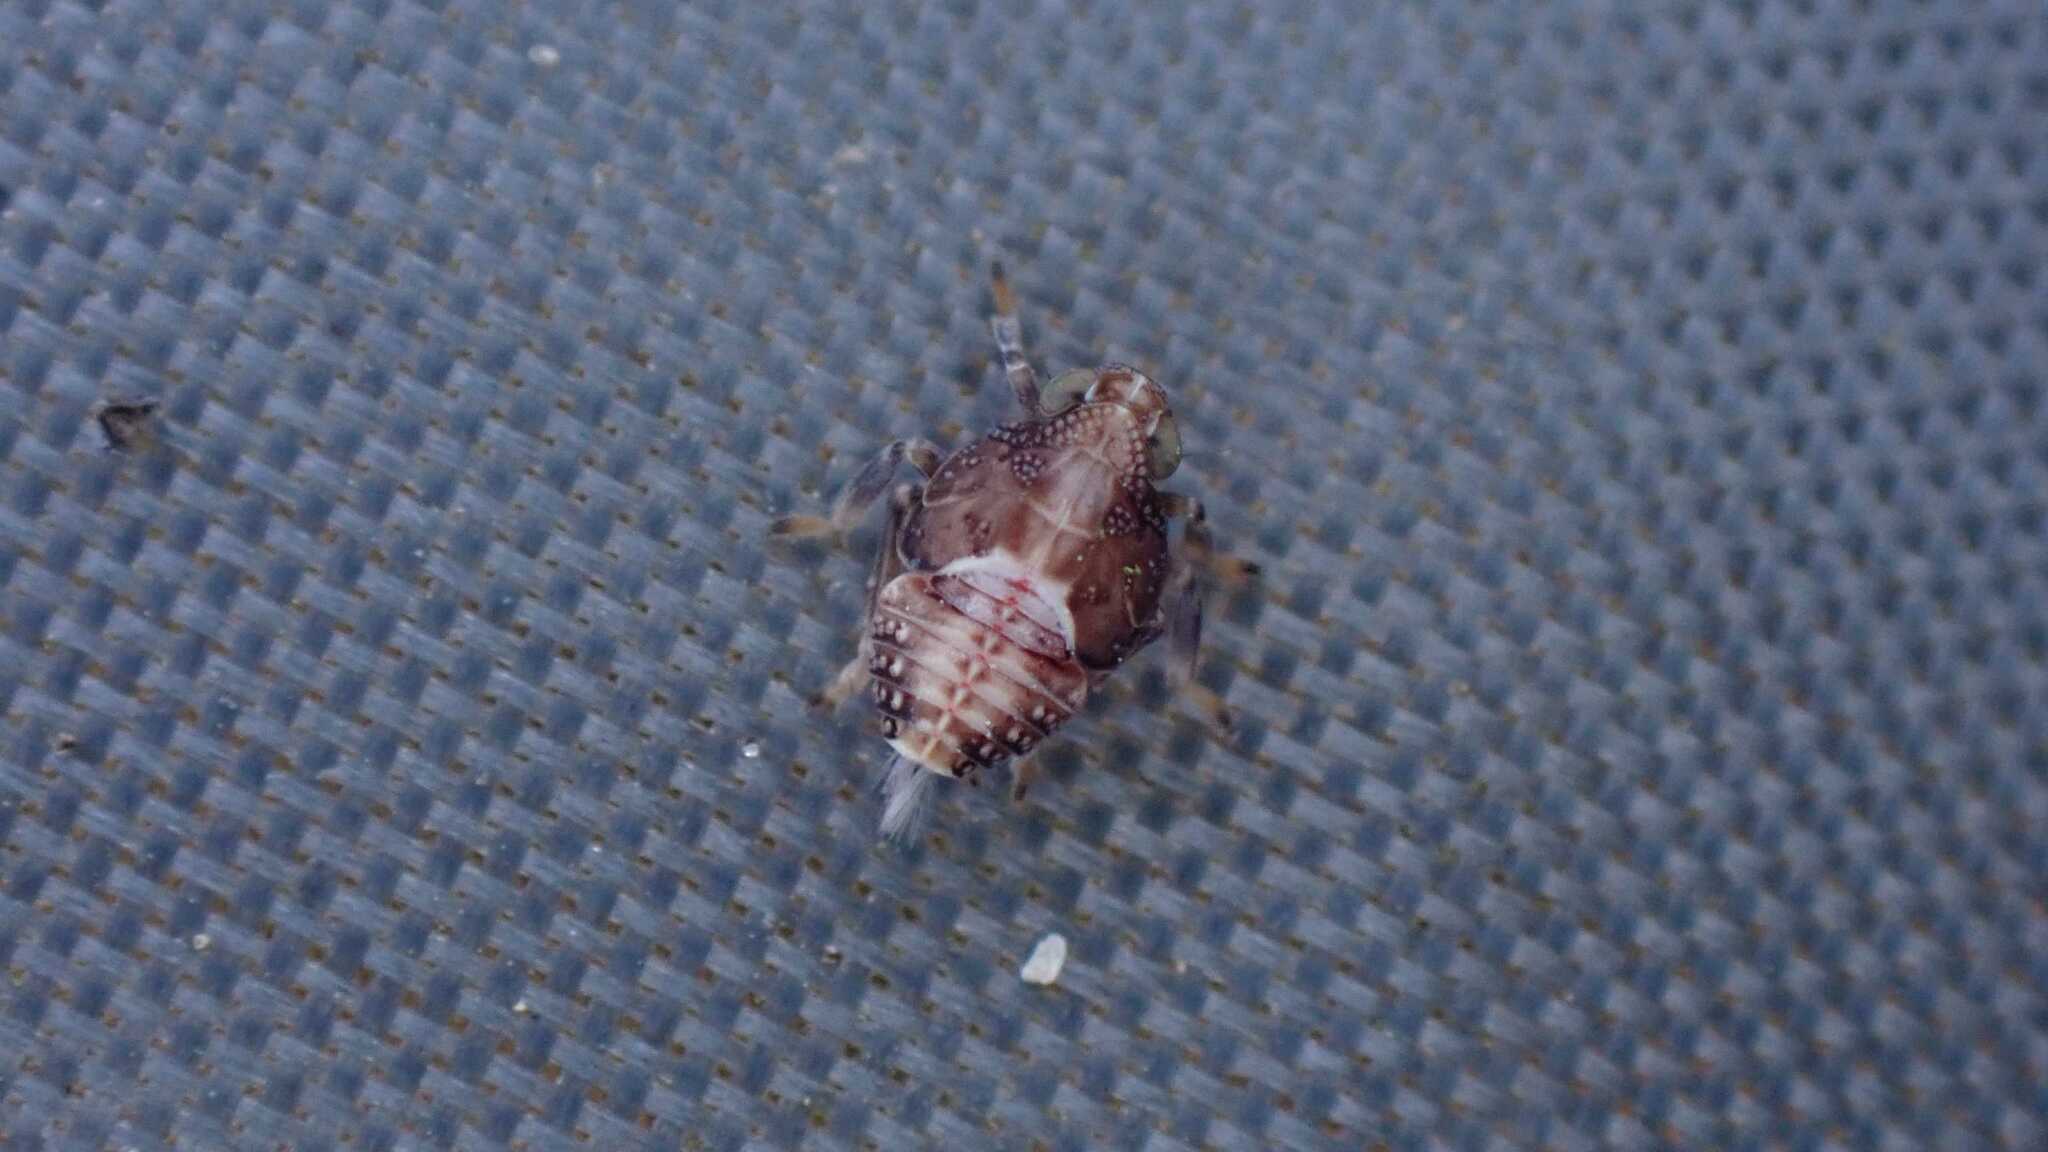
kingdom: Animalia
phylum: Arthropoda
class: Insecta
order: Hemiptera
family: Issidae
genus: Issus
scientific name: Issus coleoptratus
